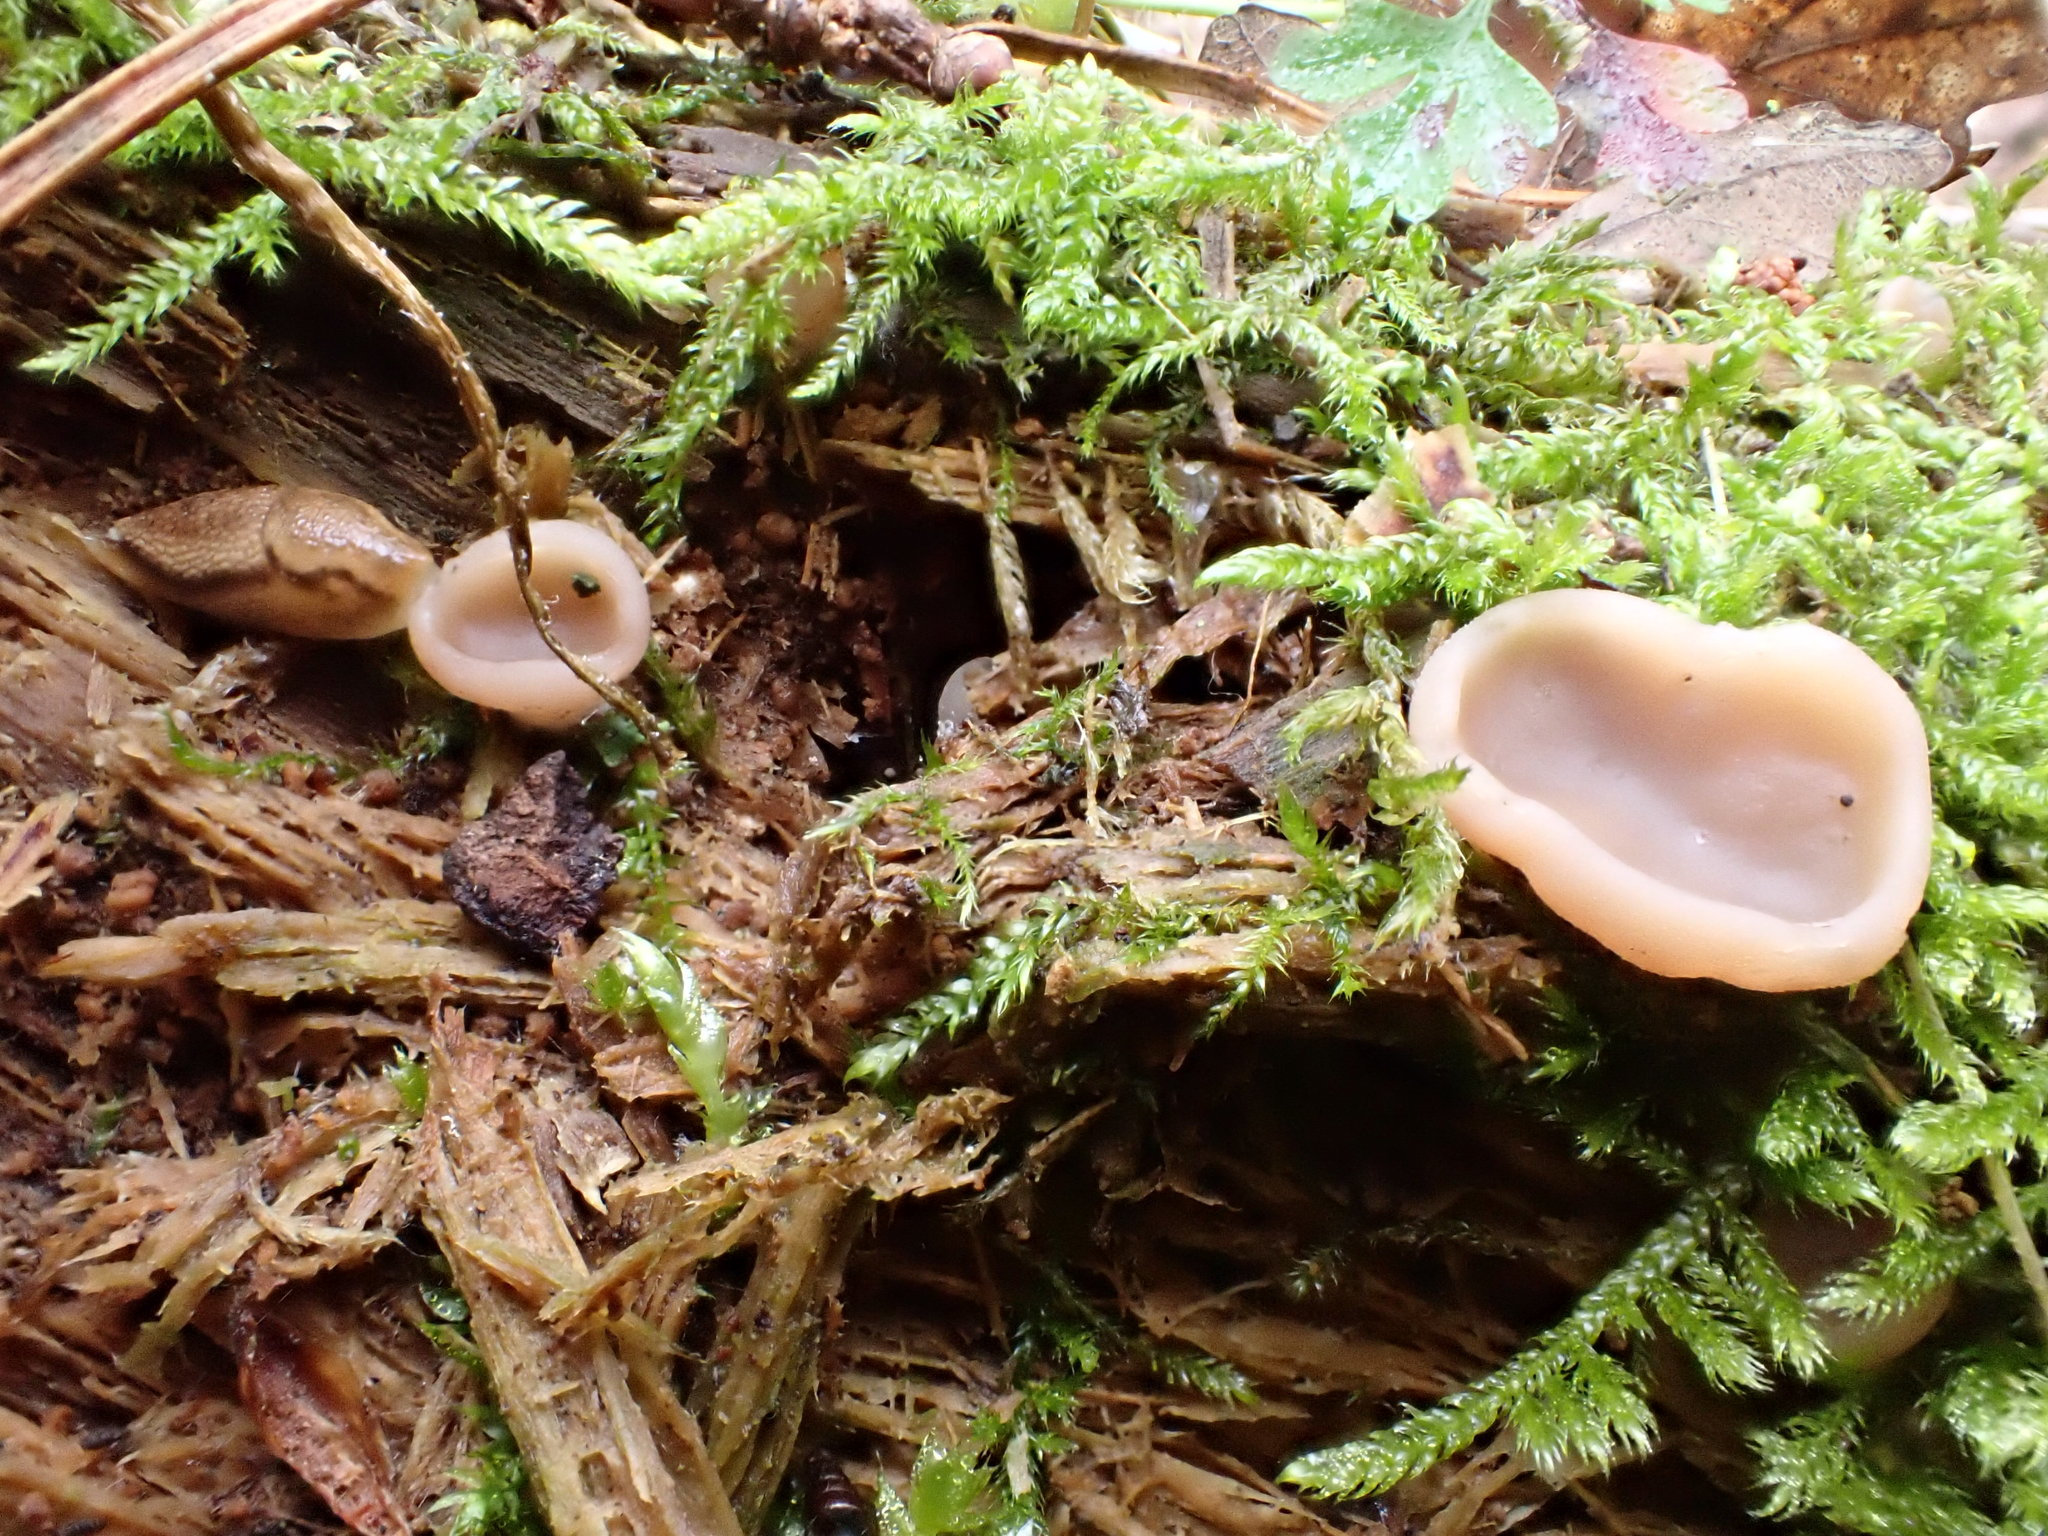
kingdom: Fungi
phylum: Ascomycota
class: Pezizomycetes
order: Pezizales
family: Discinaceae
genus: Discina
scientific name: Discina
